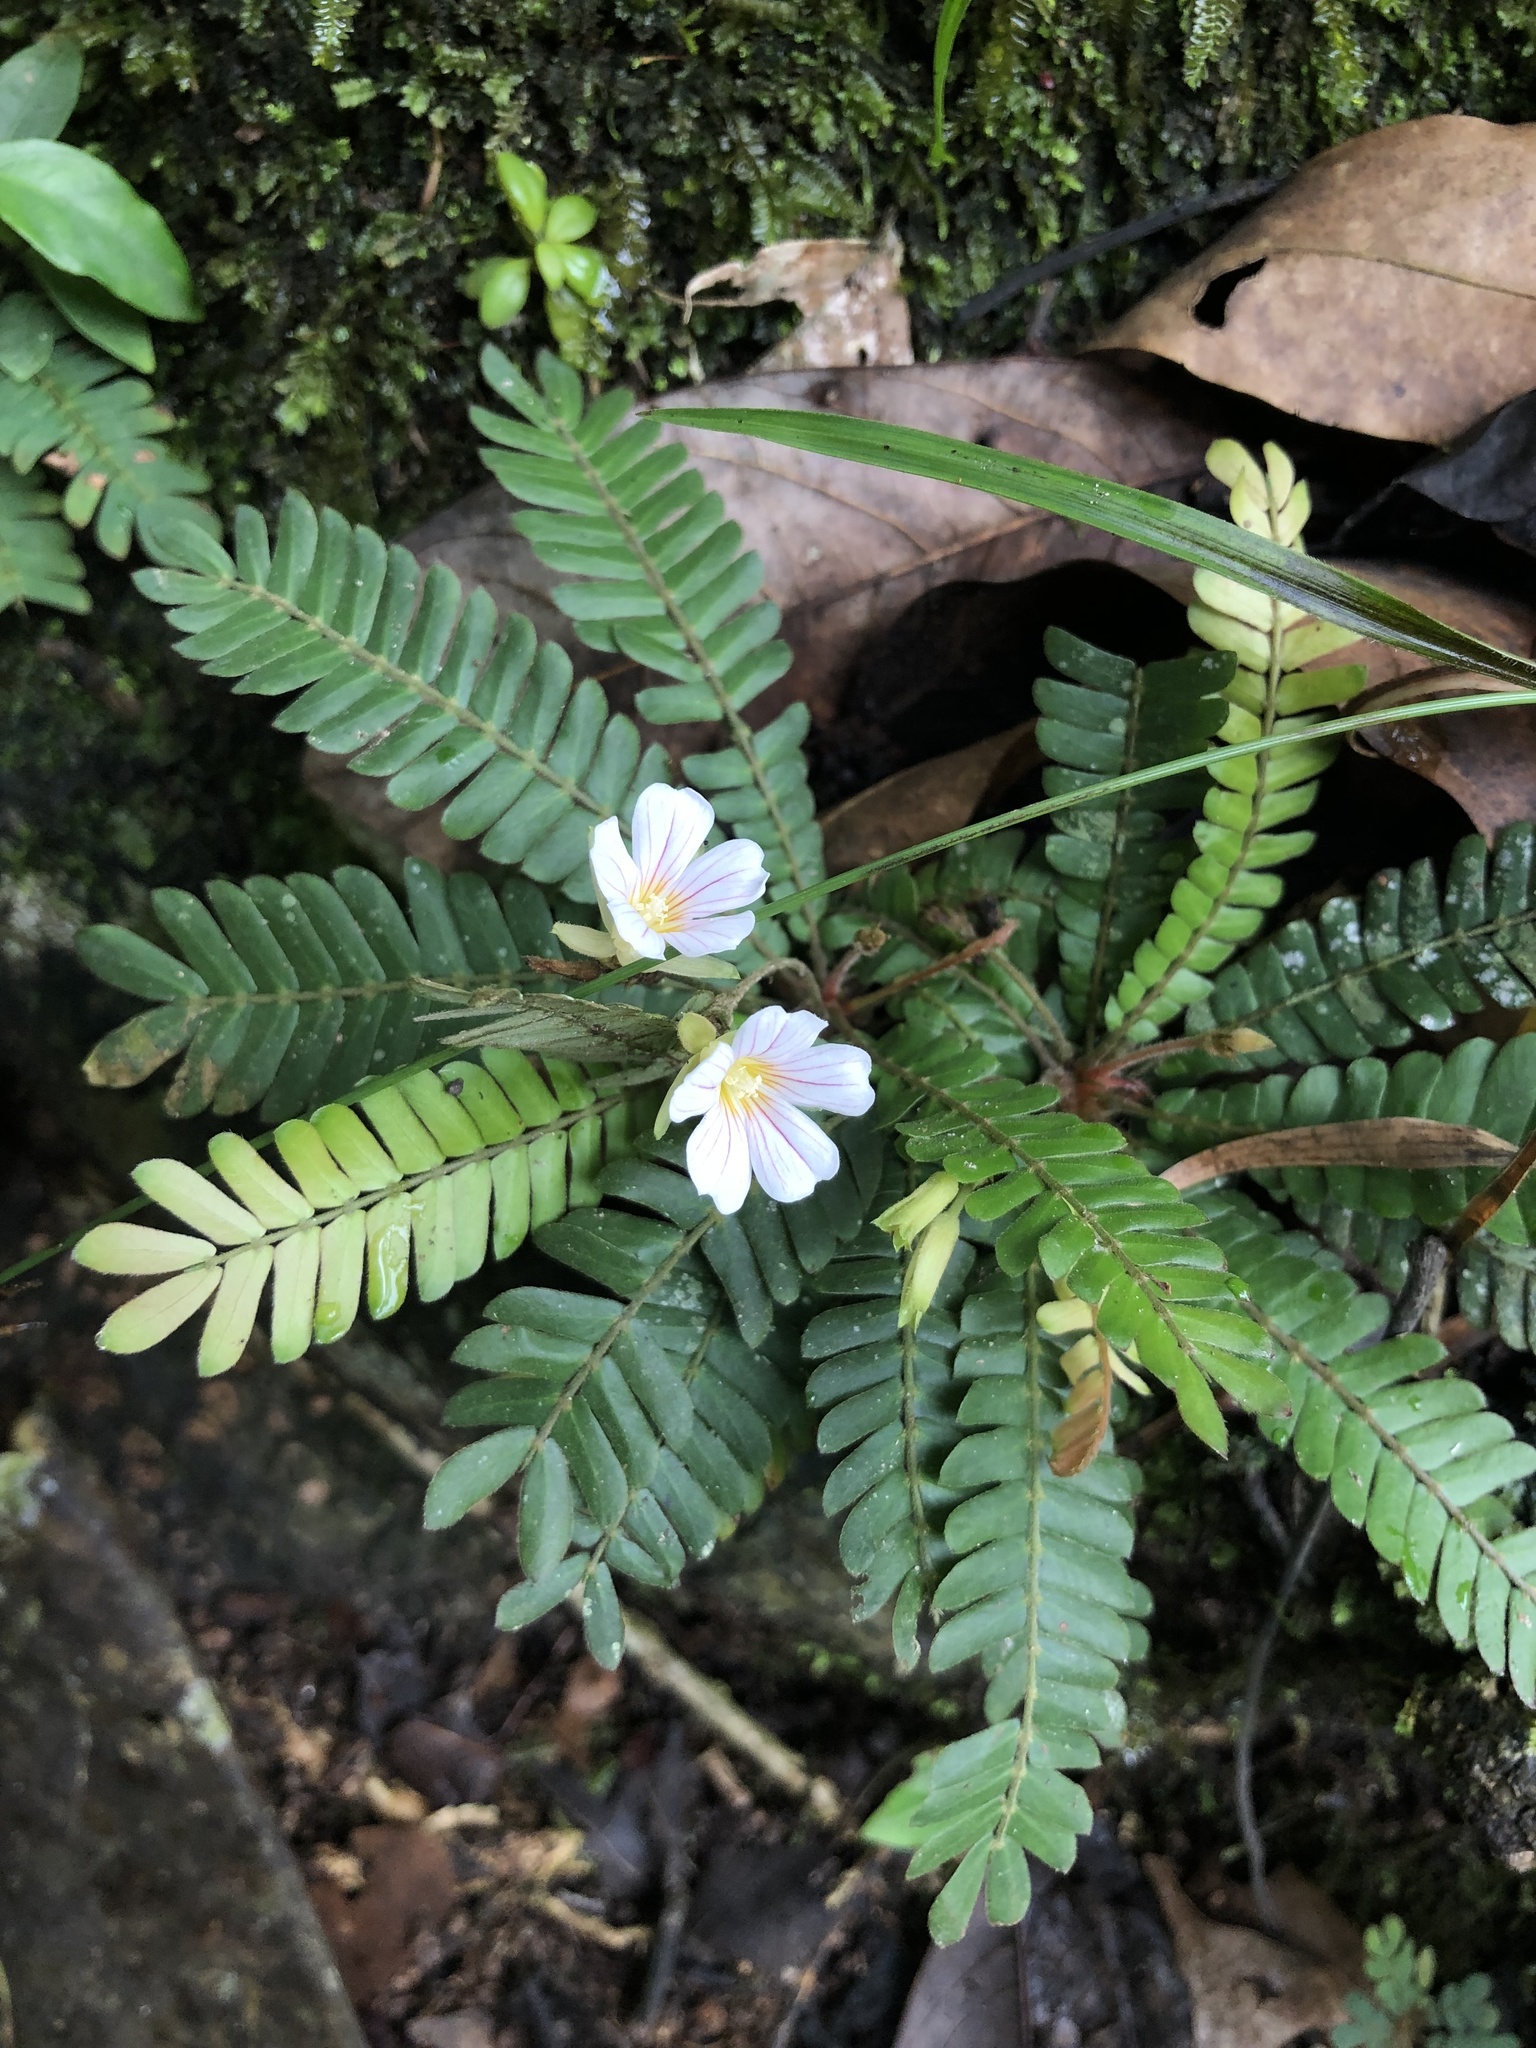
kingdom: Plantae
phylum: Tracheophyta
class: Magnoliopsida
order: Oxalidales
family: Oxalidaceae
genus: Biophytum
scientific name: Biophytum dendroides
